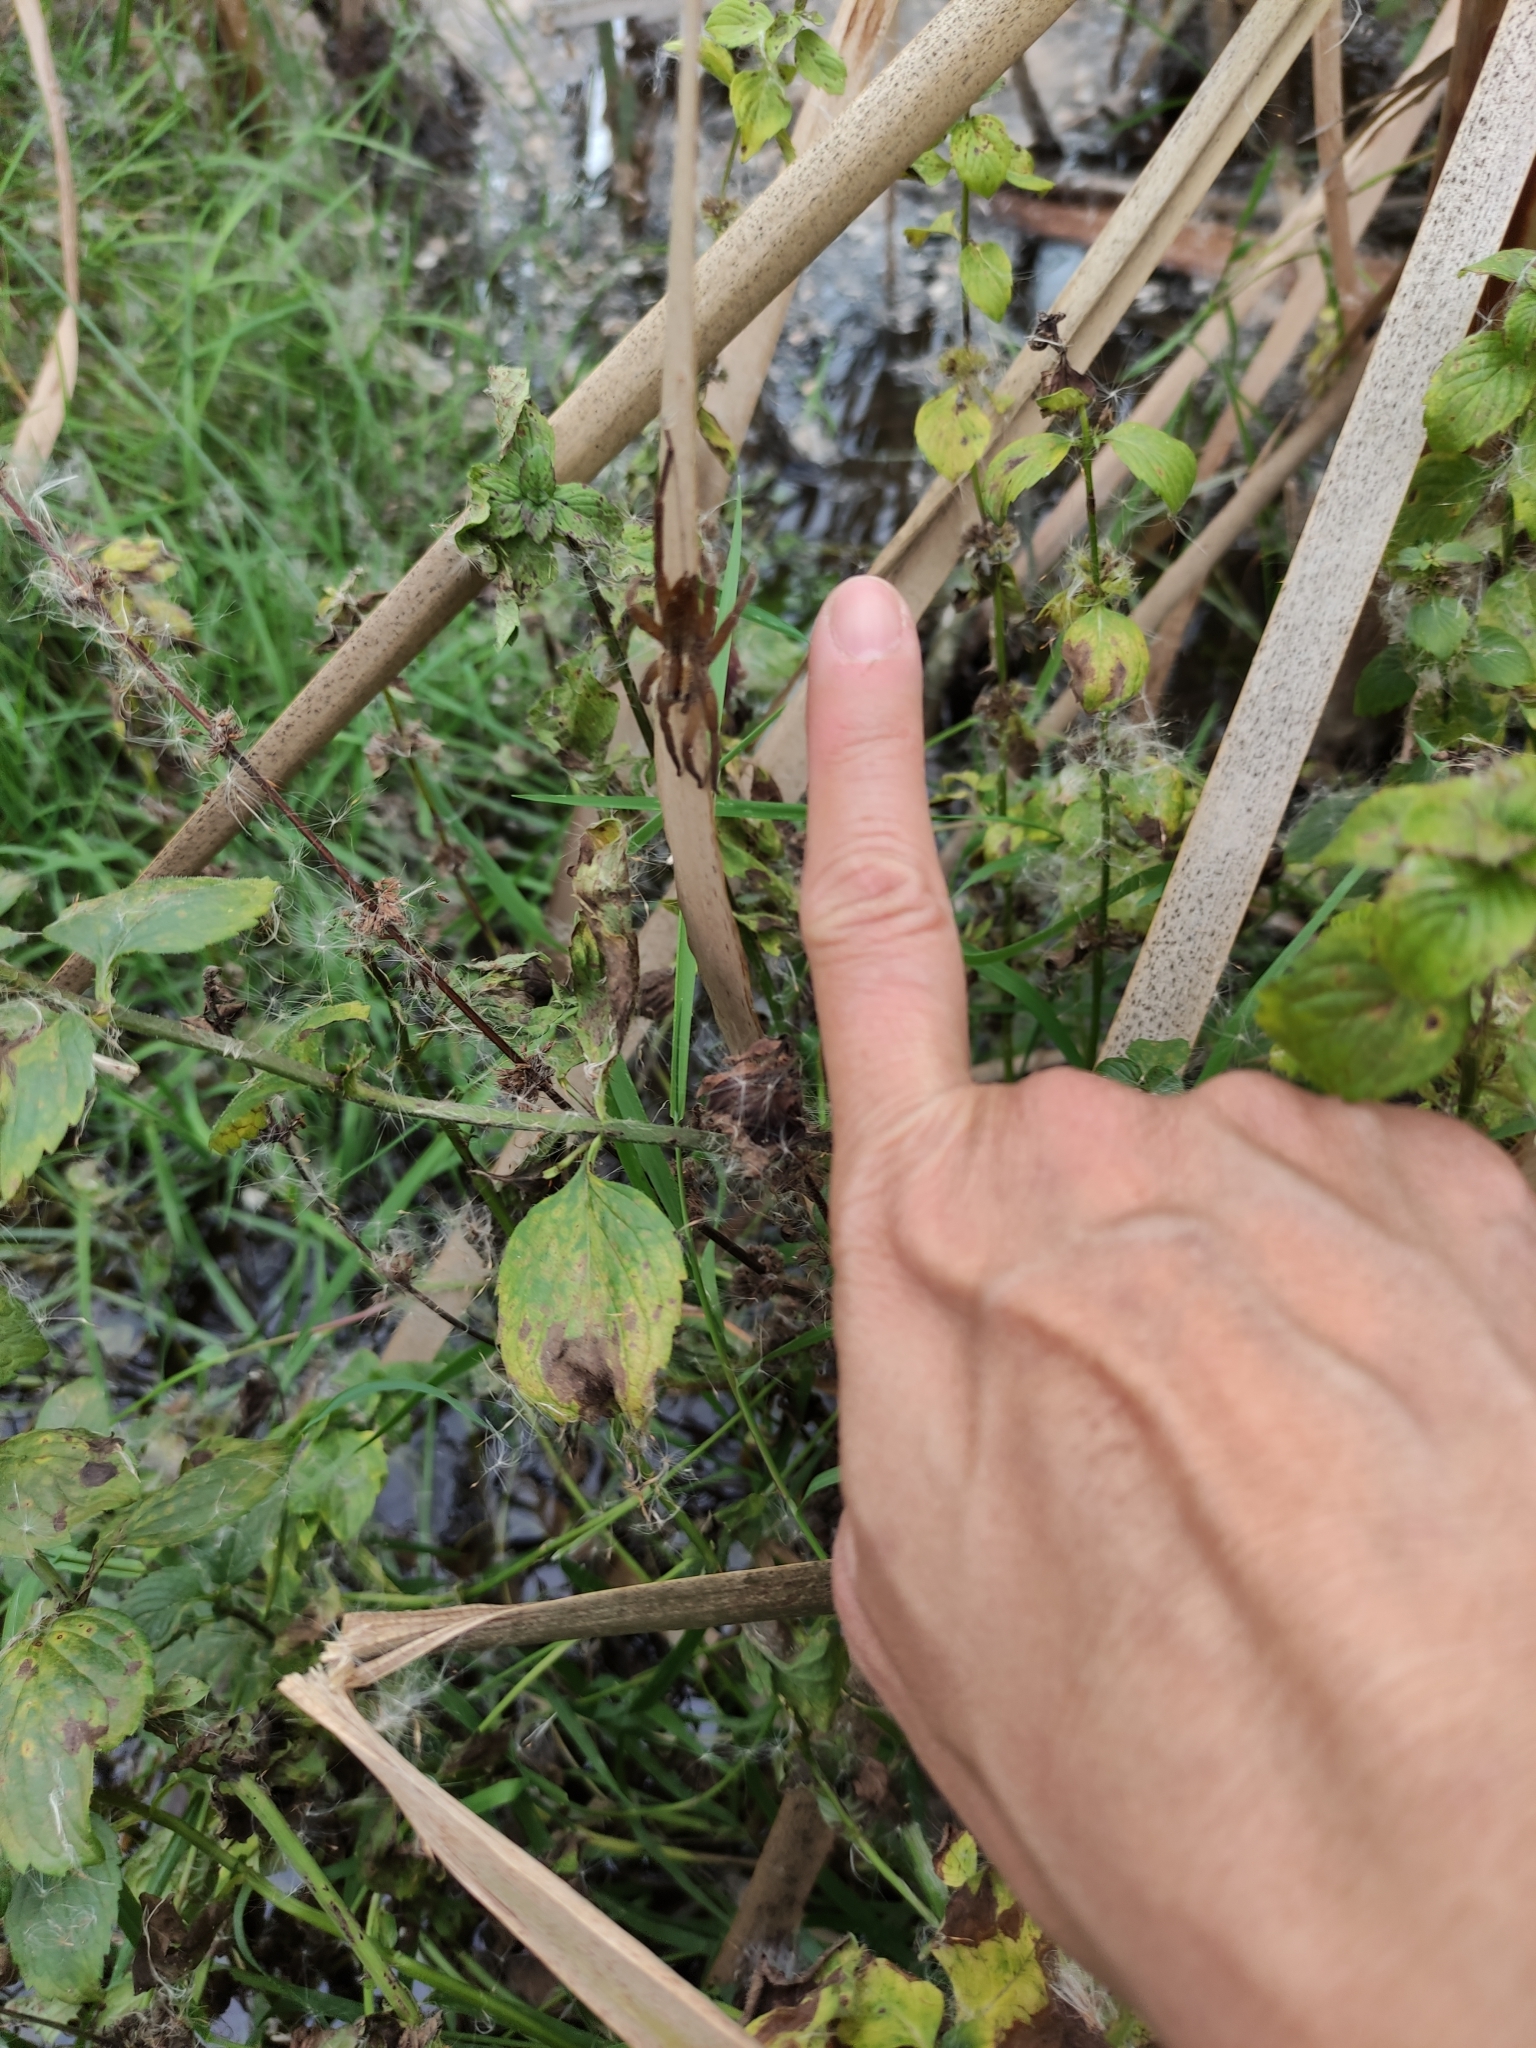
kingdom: Animalia
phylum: Arthropoda
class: Arachnida
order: Araneae
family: Pisauridae
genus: Dolomedes
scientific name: Dolomedes minor
